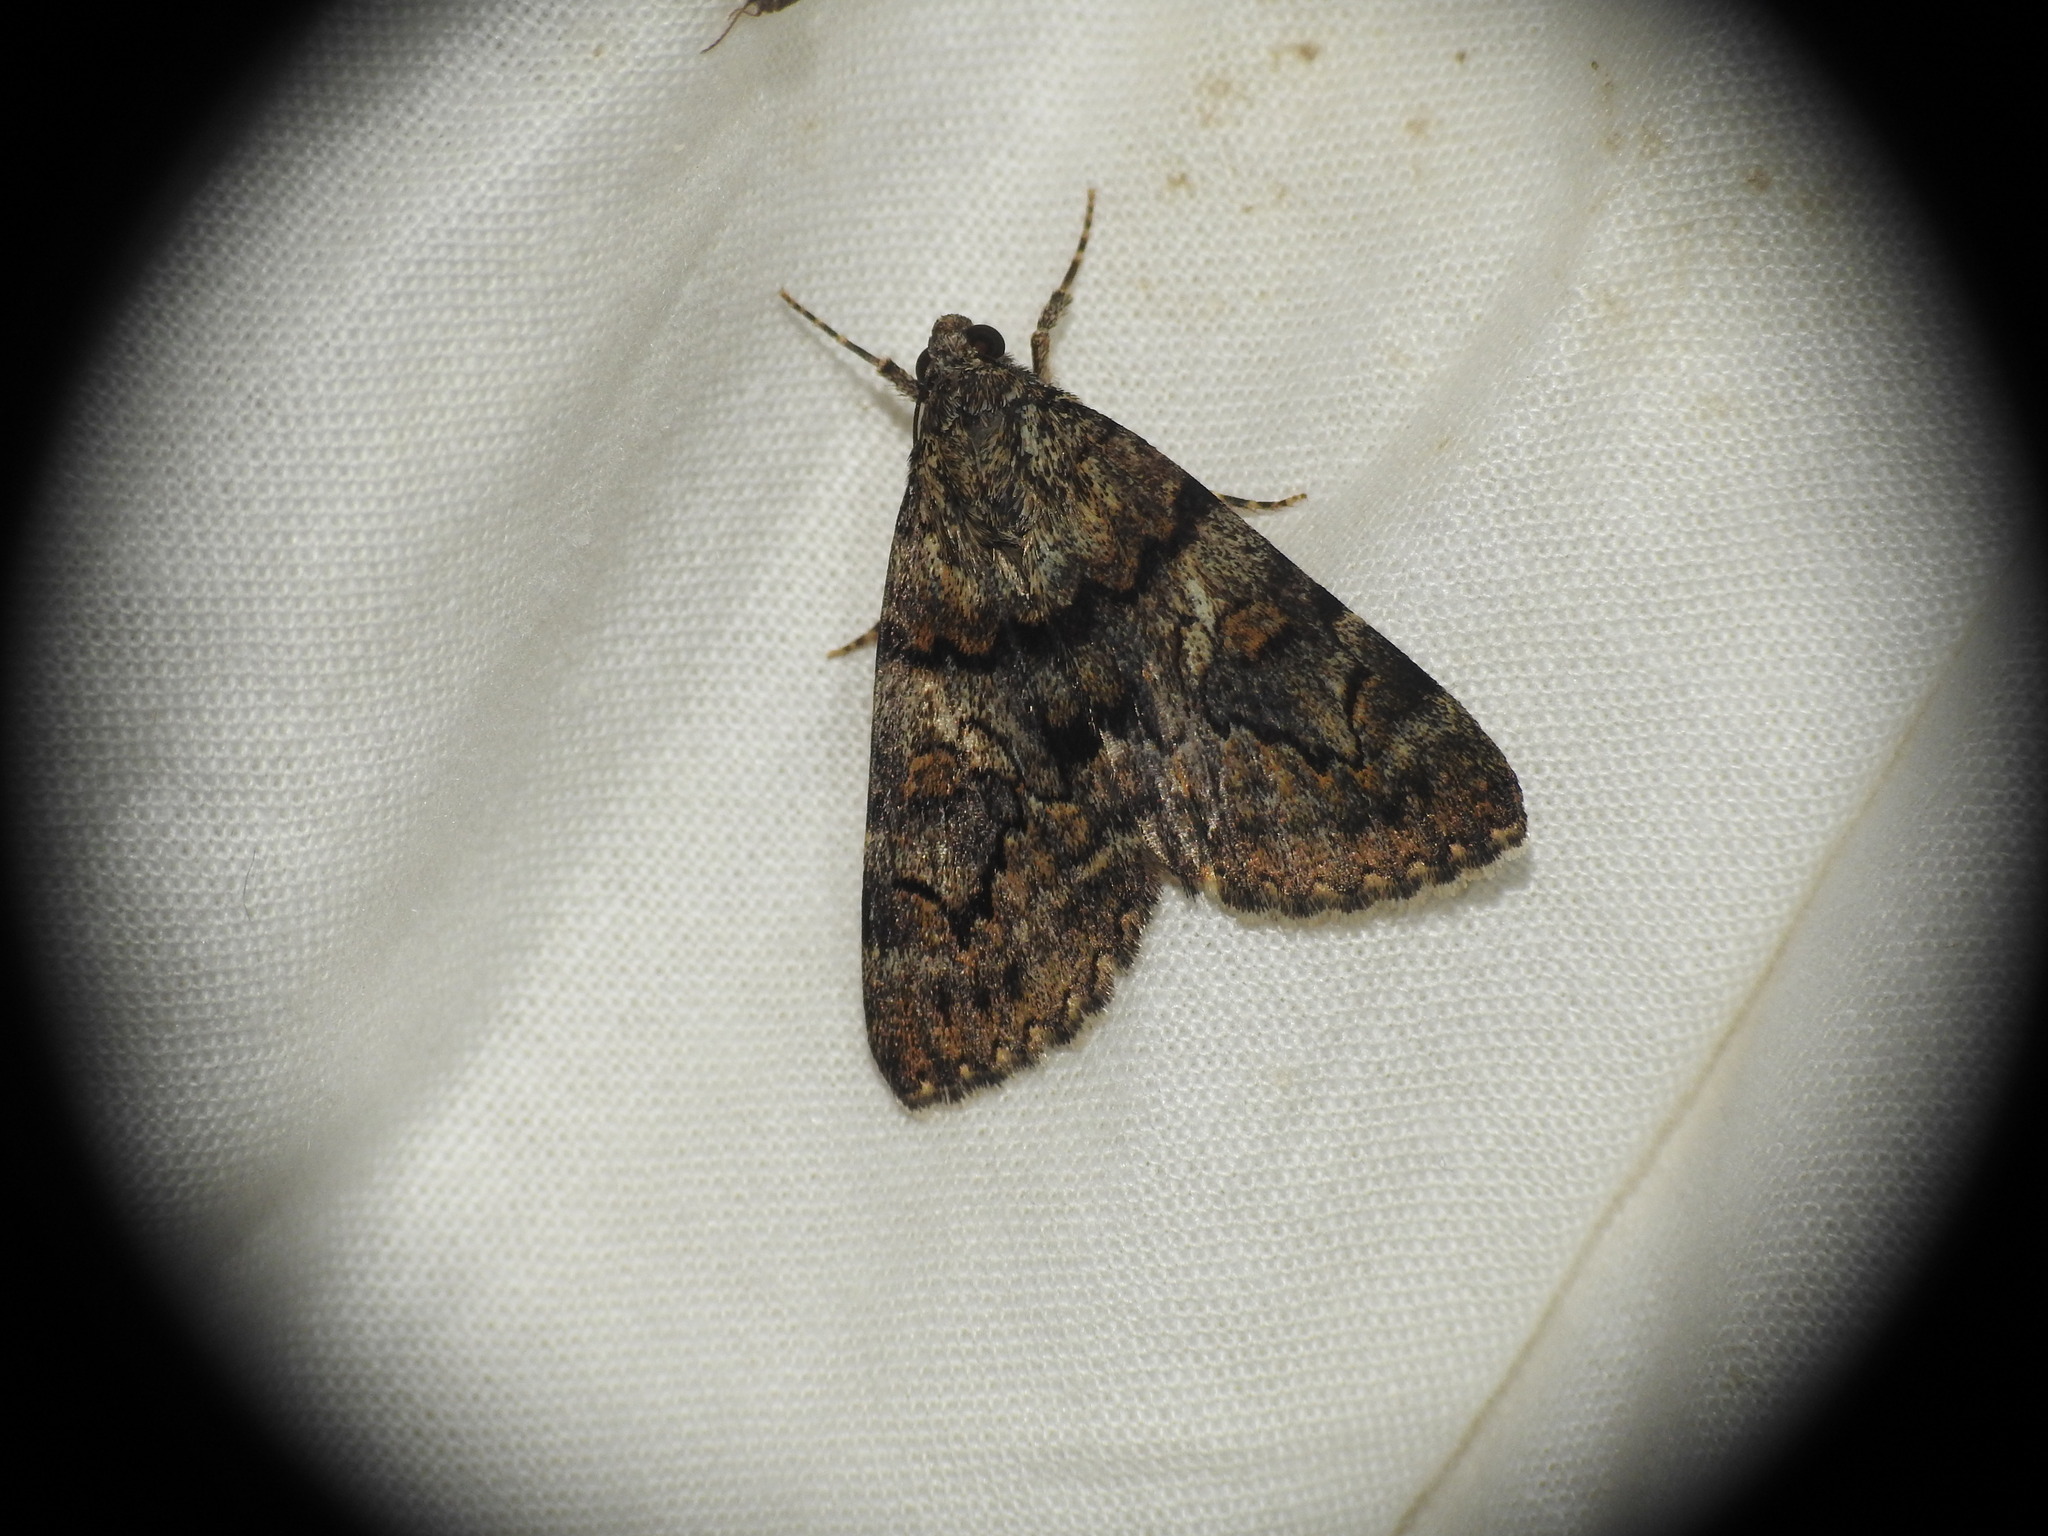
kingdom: Animalia
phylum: Arthropoda
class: Insecta
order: Lepidoptera
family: Erebidae
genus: Catocala
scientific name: Catocala nymphagoga
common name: Oak yellow underwing
